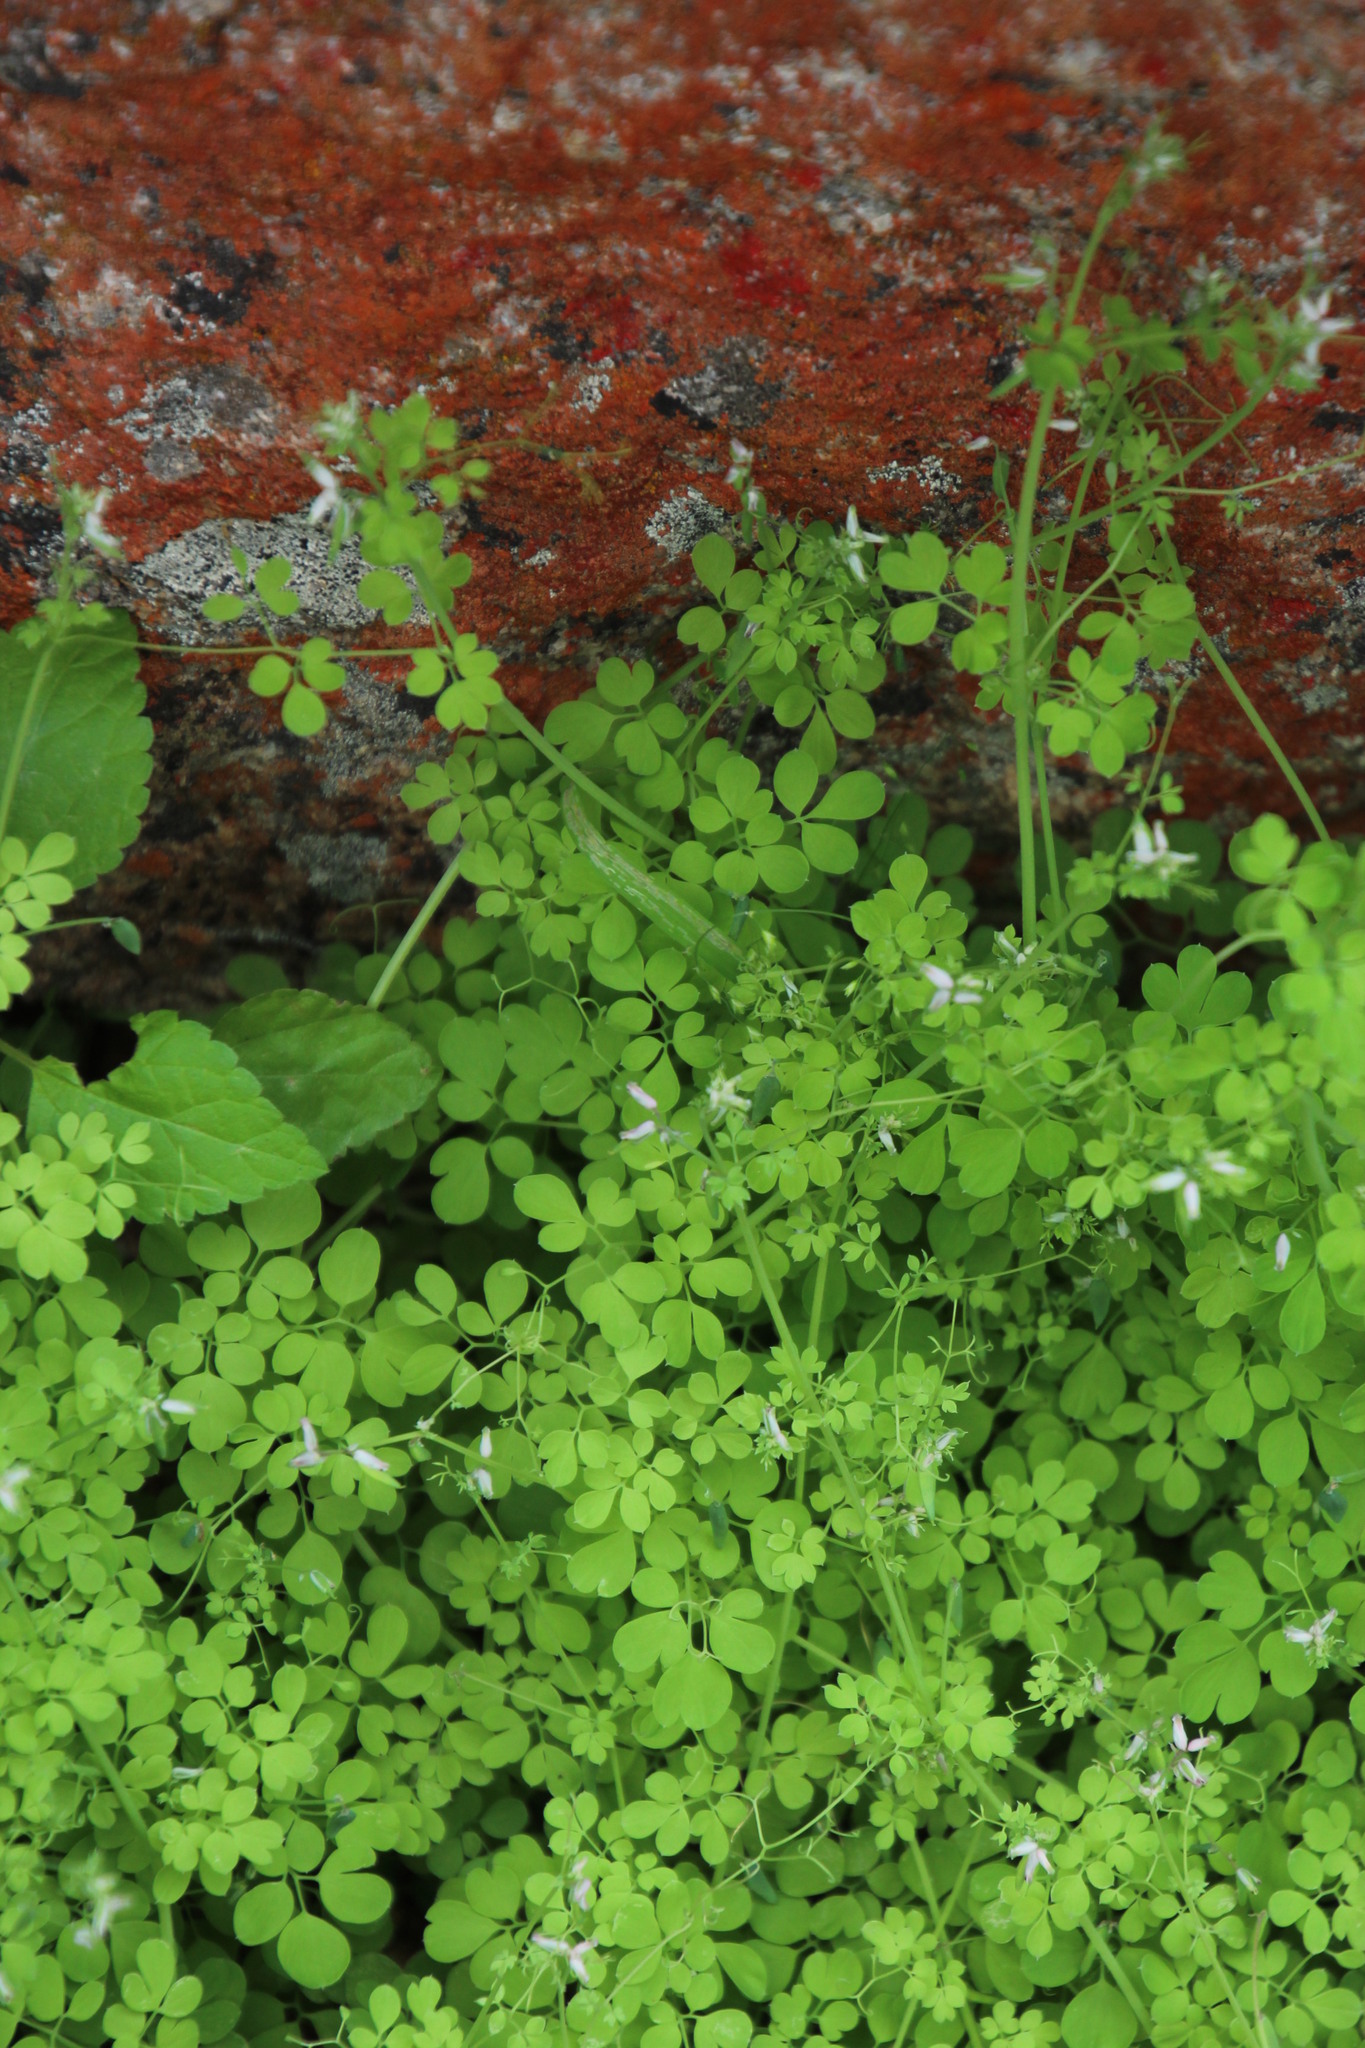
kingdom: Plantae
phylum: Tracheophyta
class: Magnoliopsida
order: Ranunculales
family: Papaveraceae
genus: Cysticapnos
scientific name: Cysticapnos cracca
